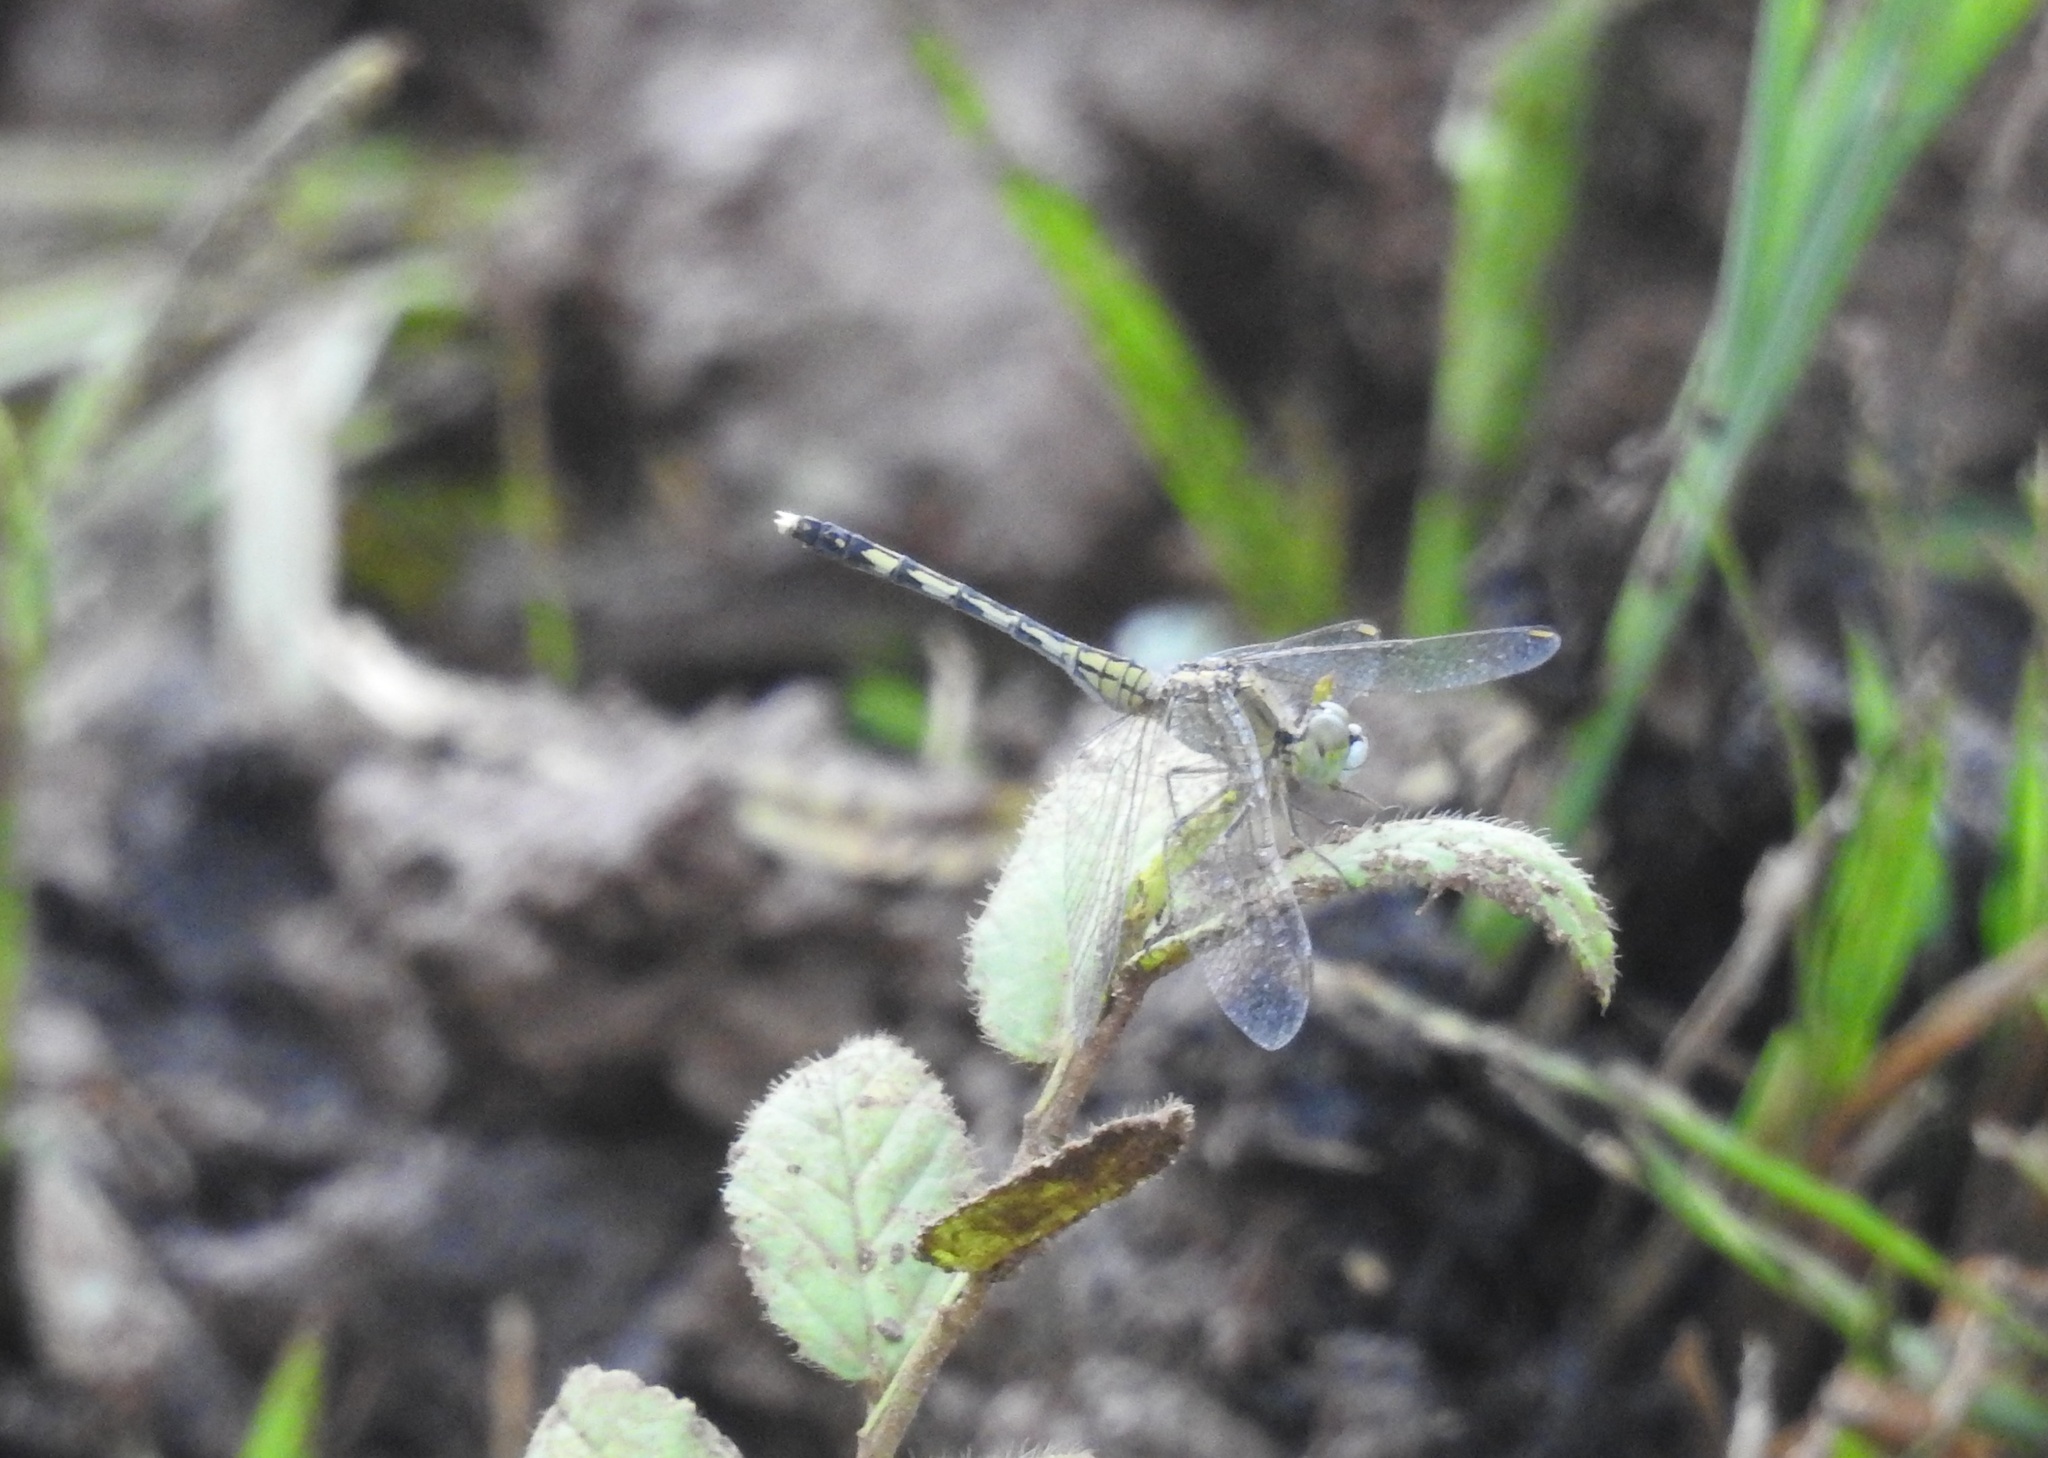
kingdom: Animalia
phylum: Arthropoda
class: Insecta
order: Odonata
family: Libellulidae
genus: Diplacodes
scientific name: Diplacodes trivialis
